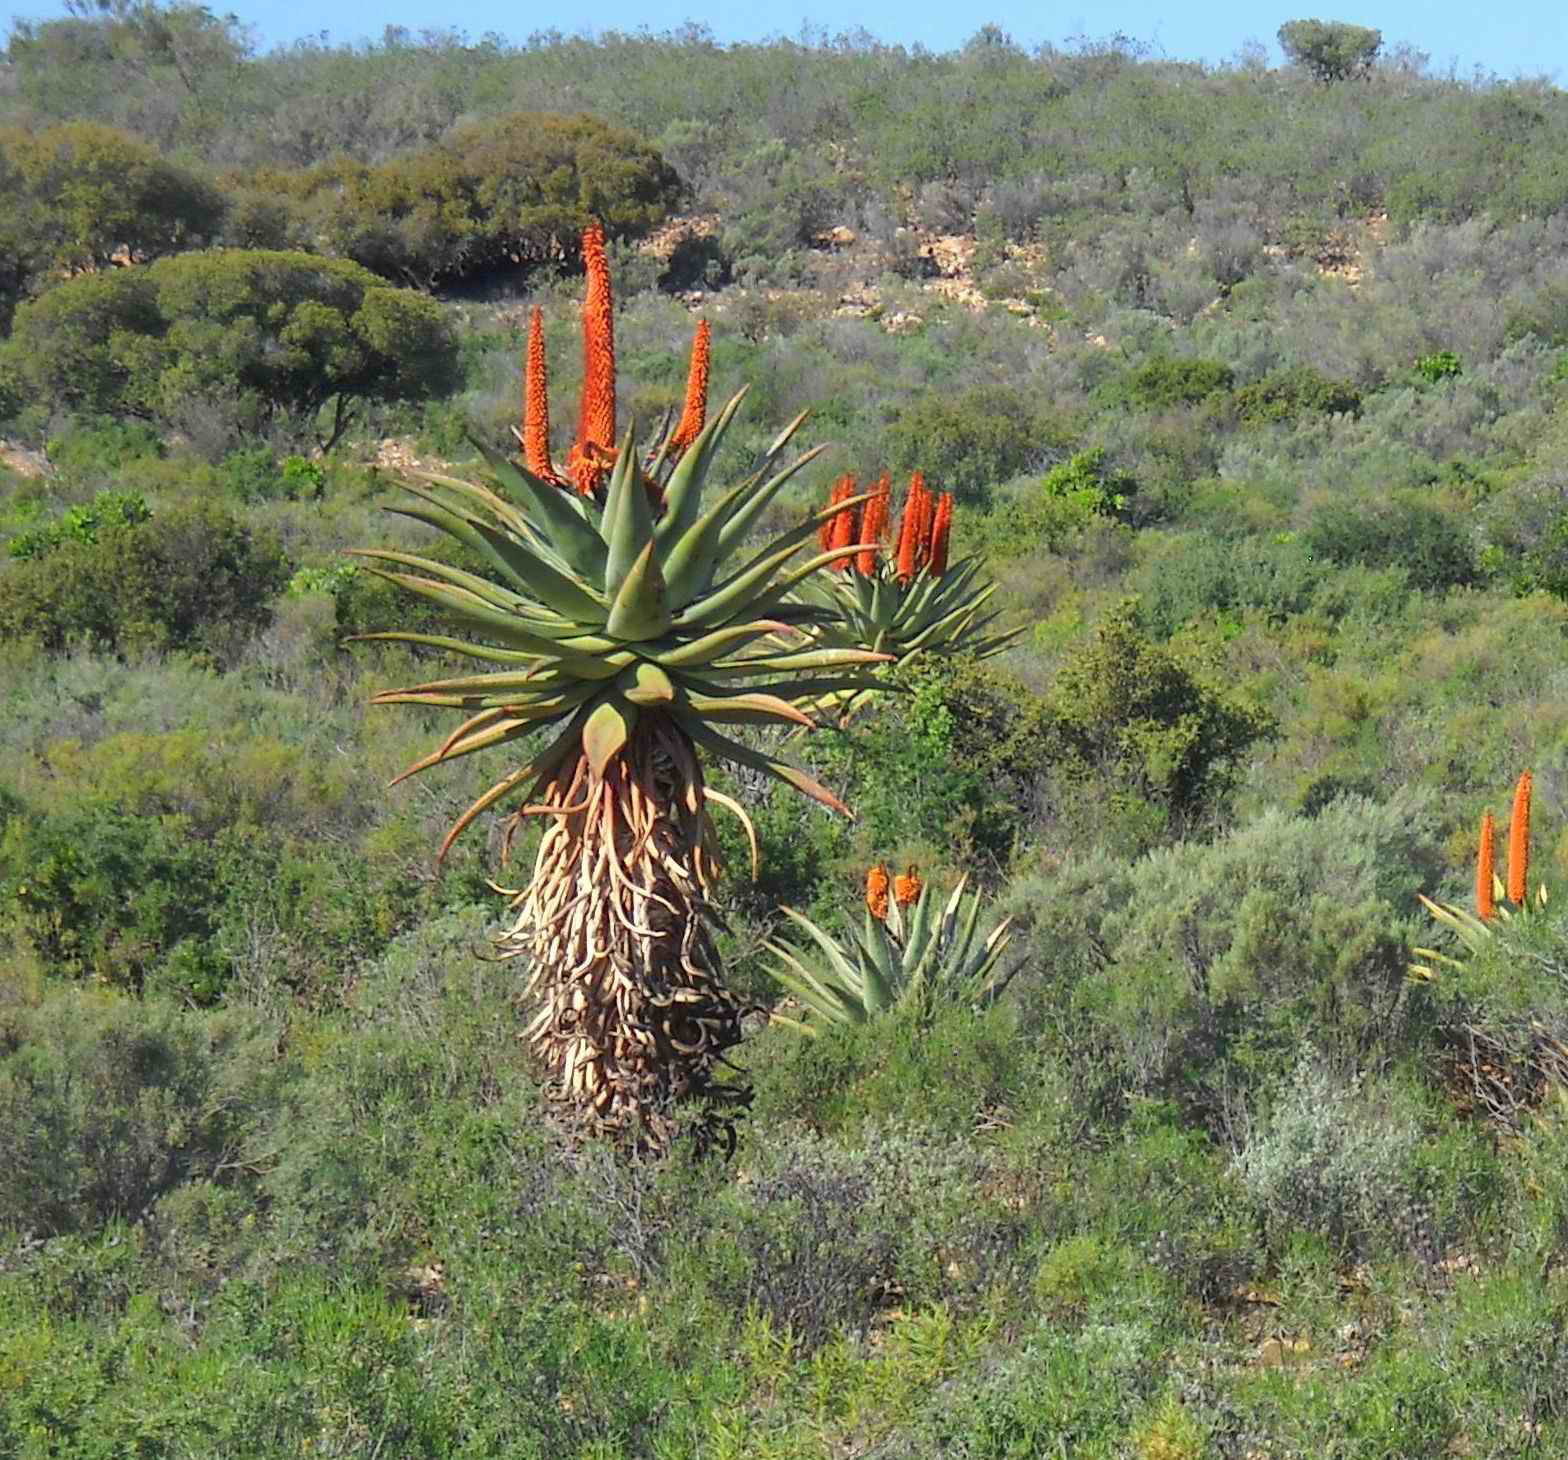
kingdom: Plantae
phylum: Tracheophyta
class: Liliopsida
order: Asparagales
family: Asphodelaceae
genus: Aloe
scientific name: Aloe ferox
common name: Bitter aloe
